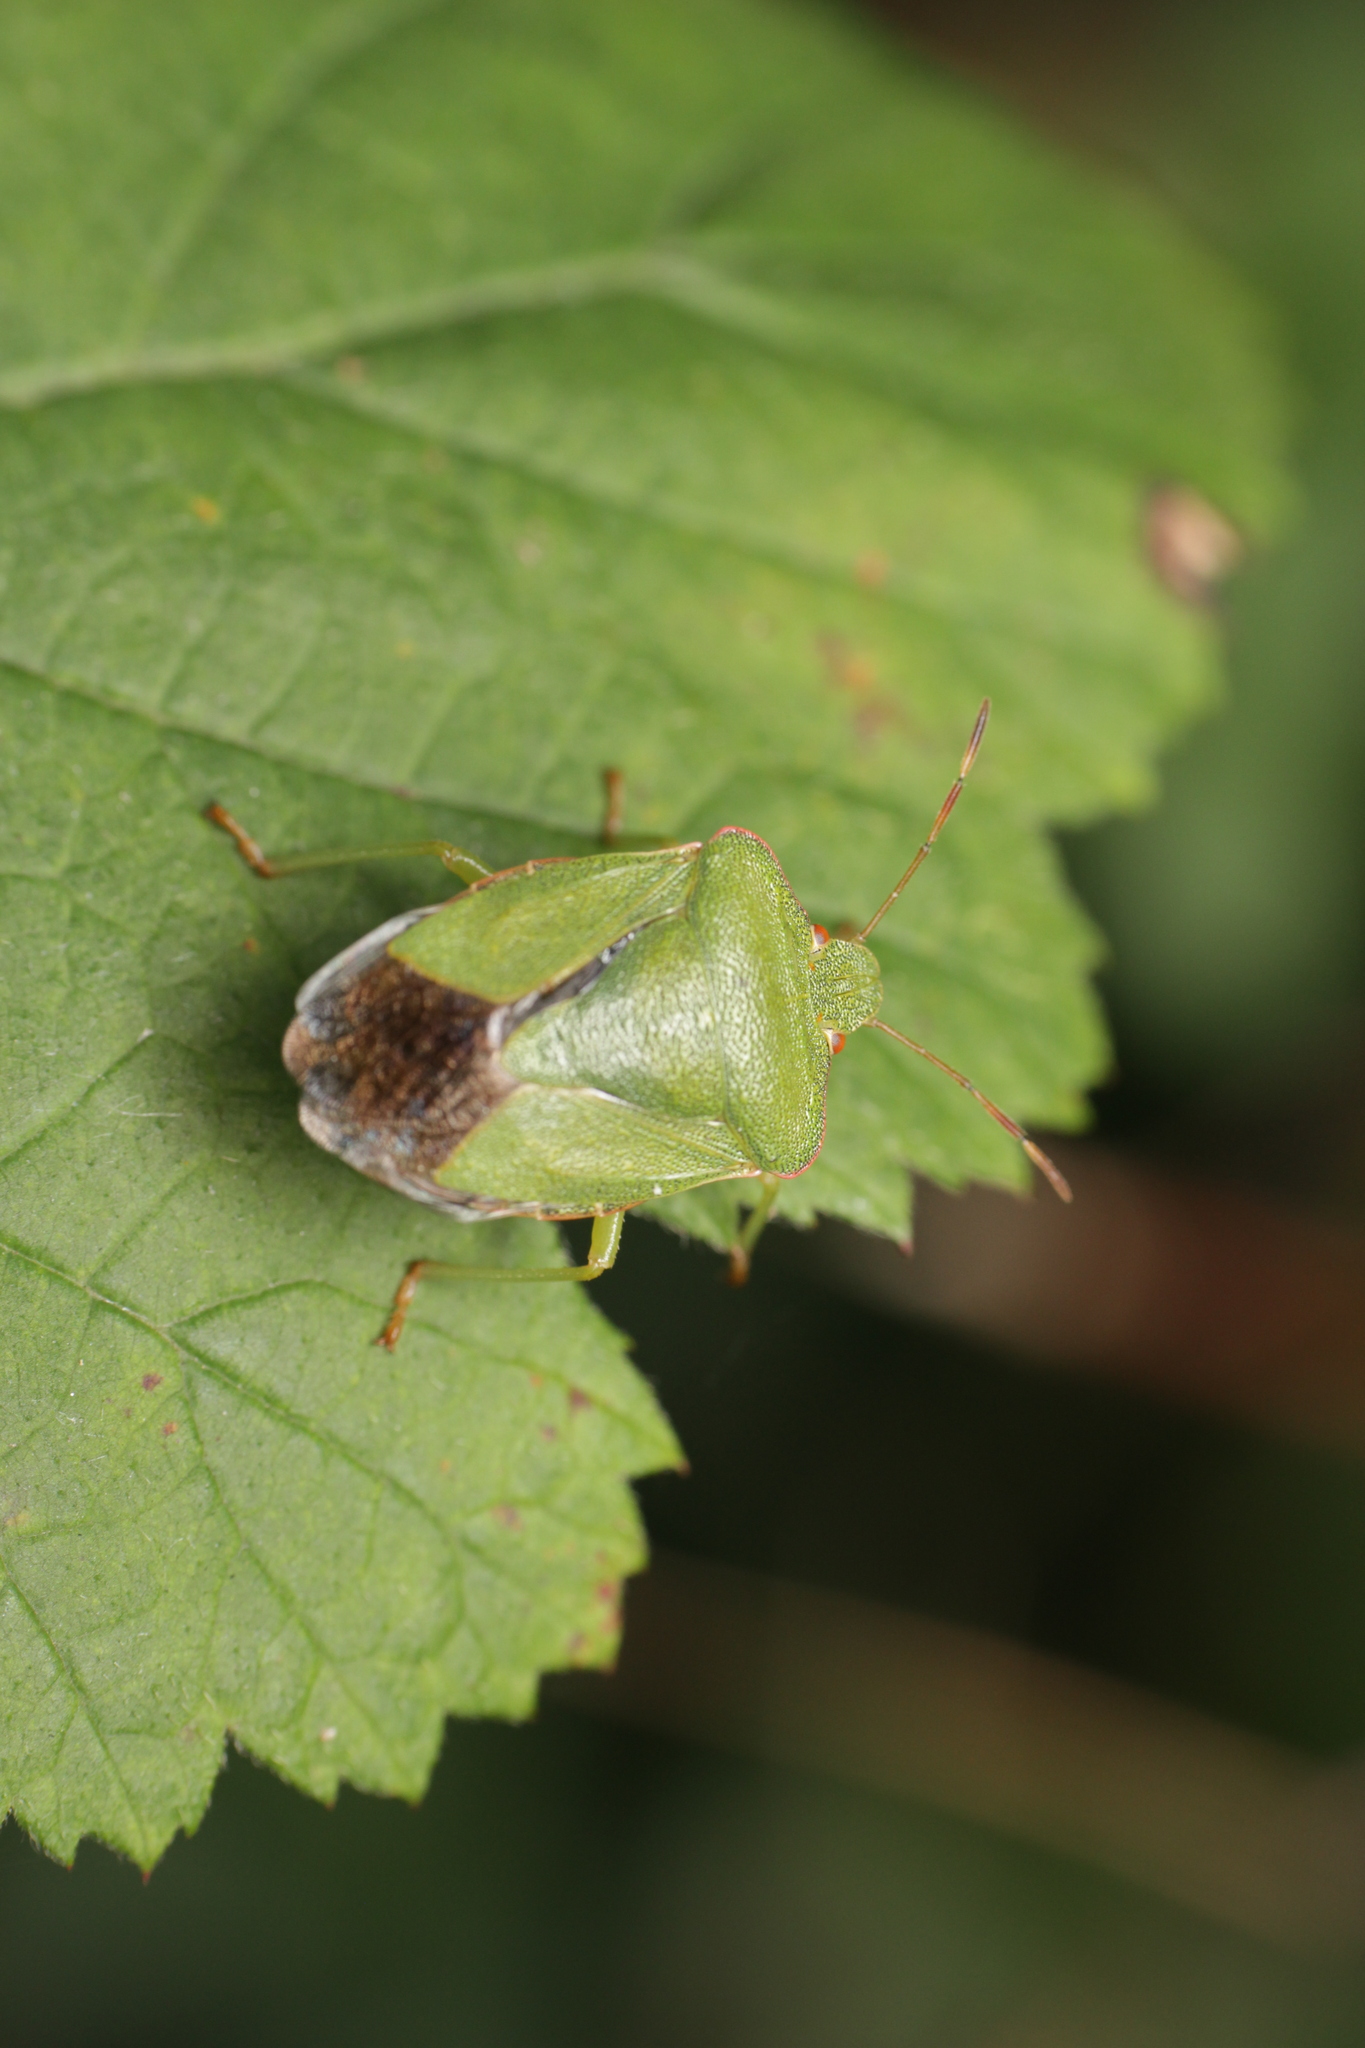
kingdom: Animalia
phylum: Arthropoda
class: Insecta
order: Hemiptera
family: Pentatomidae
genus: Palomena
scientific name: Palomena prasina
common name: Green shieldbug
